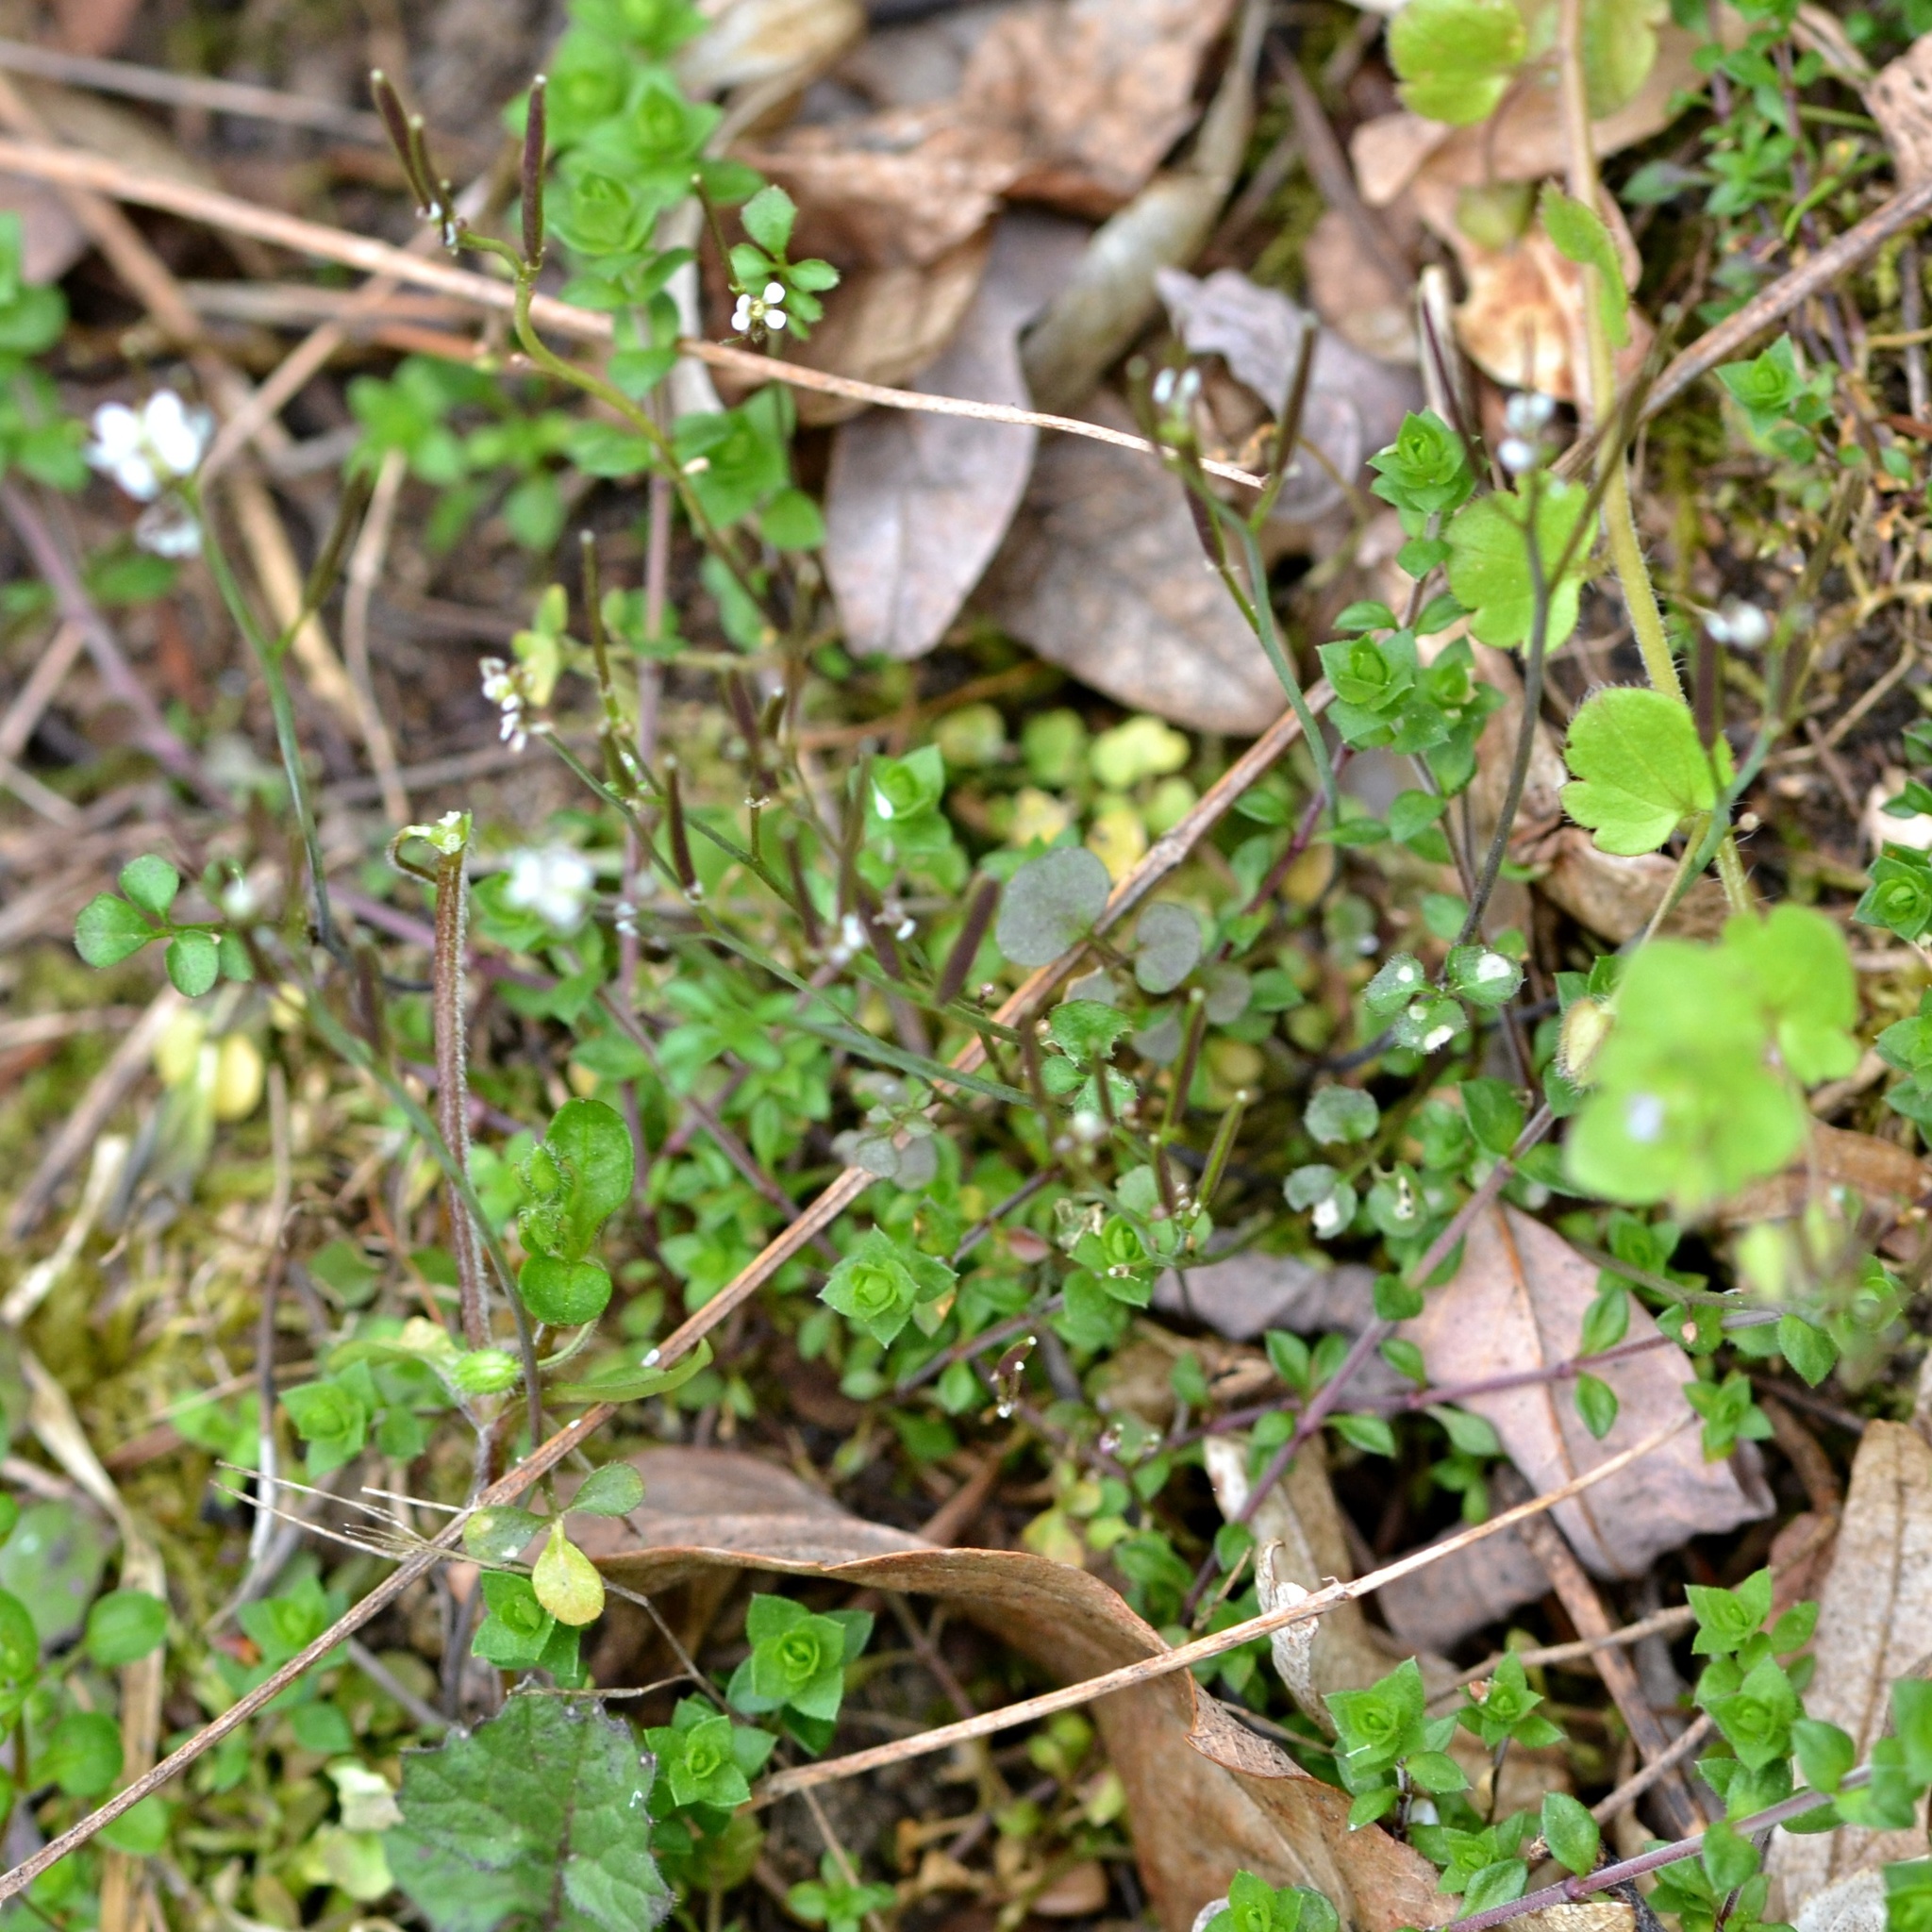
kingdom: Plantae
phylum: Tracheophyta
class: Magnoliopsida
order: Brassicales
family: Brassicaceae
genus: Cardamine
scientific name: Cardamine hirsuta
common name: Hairy bittercress
